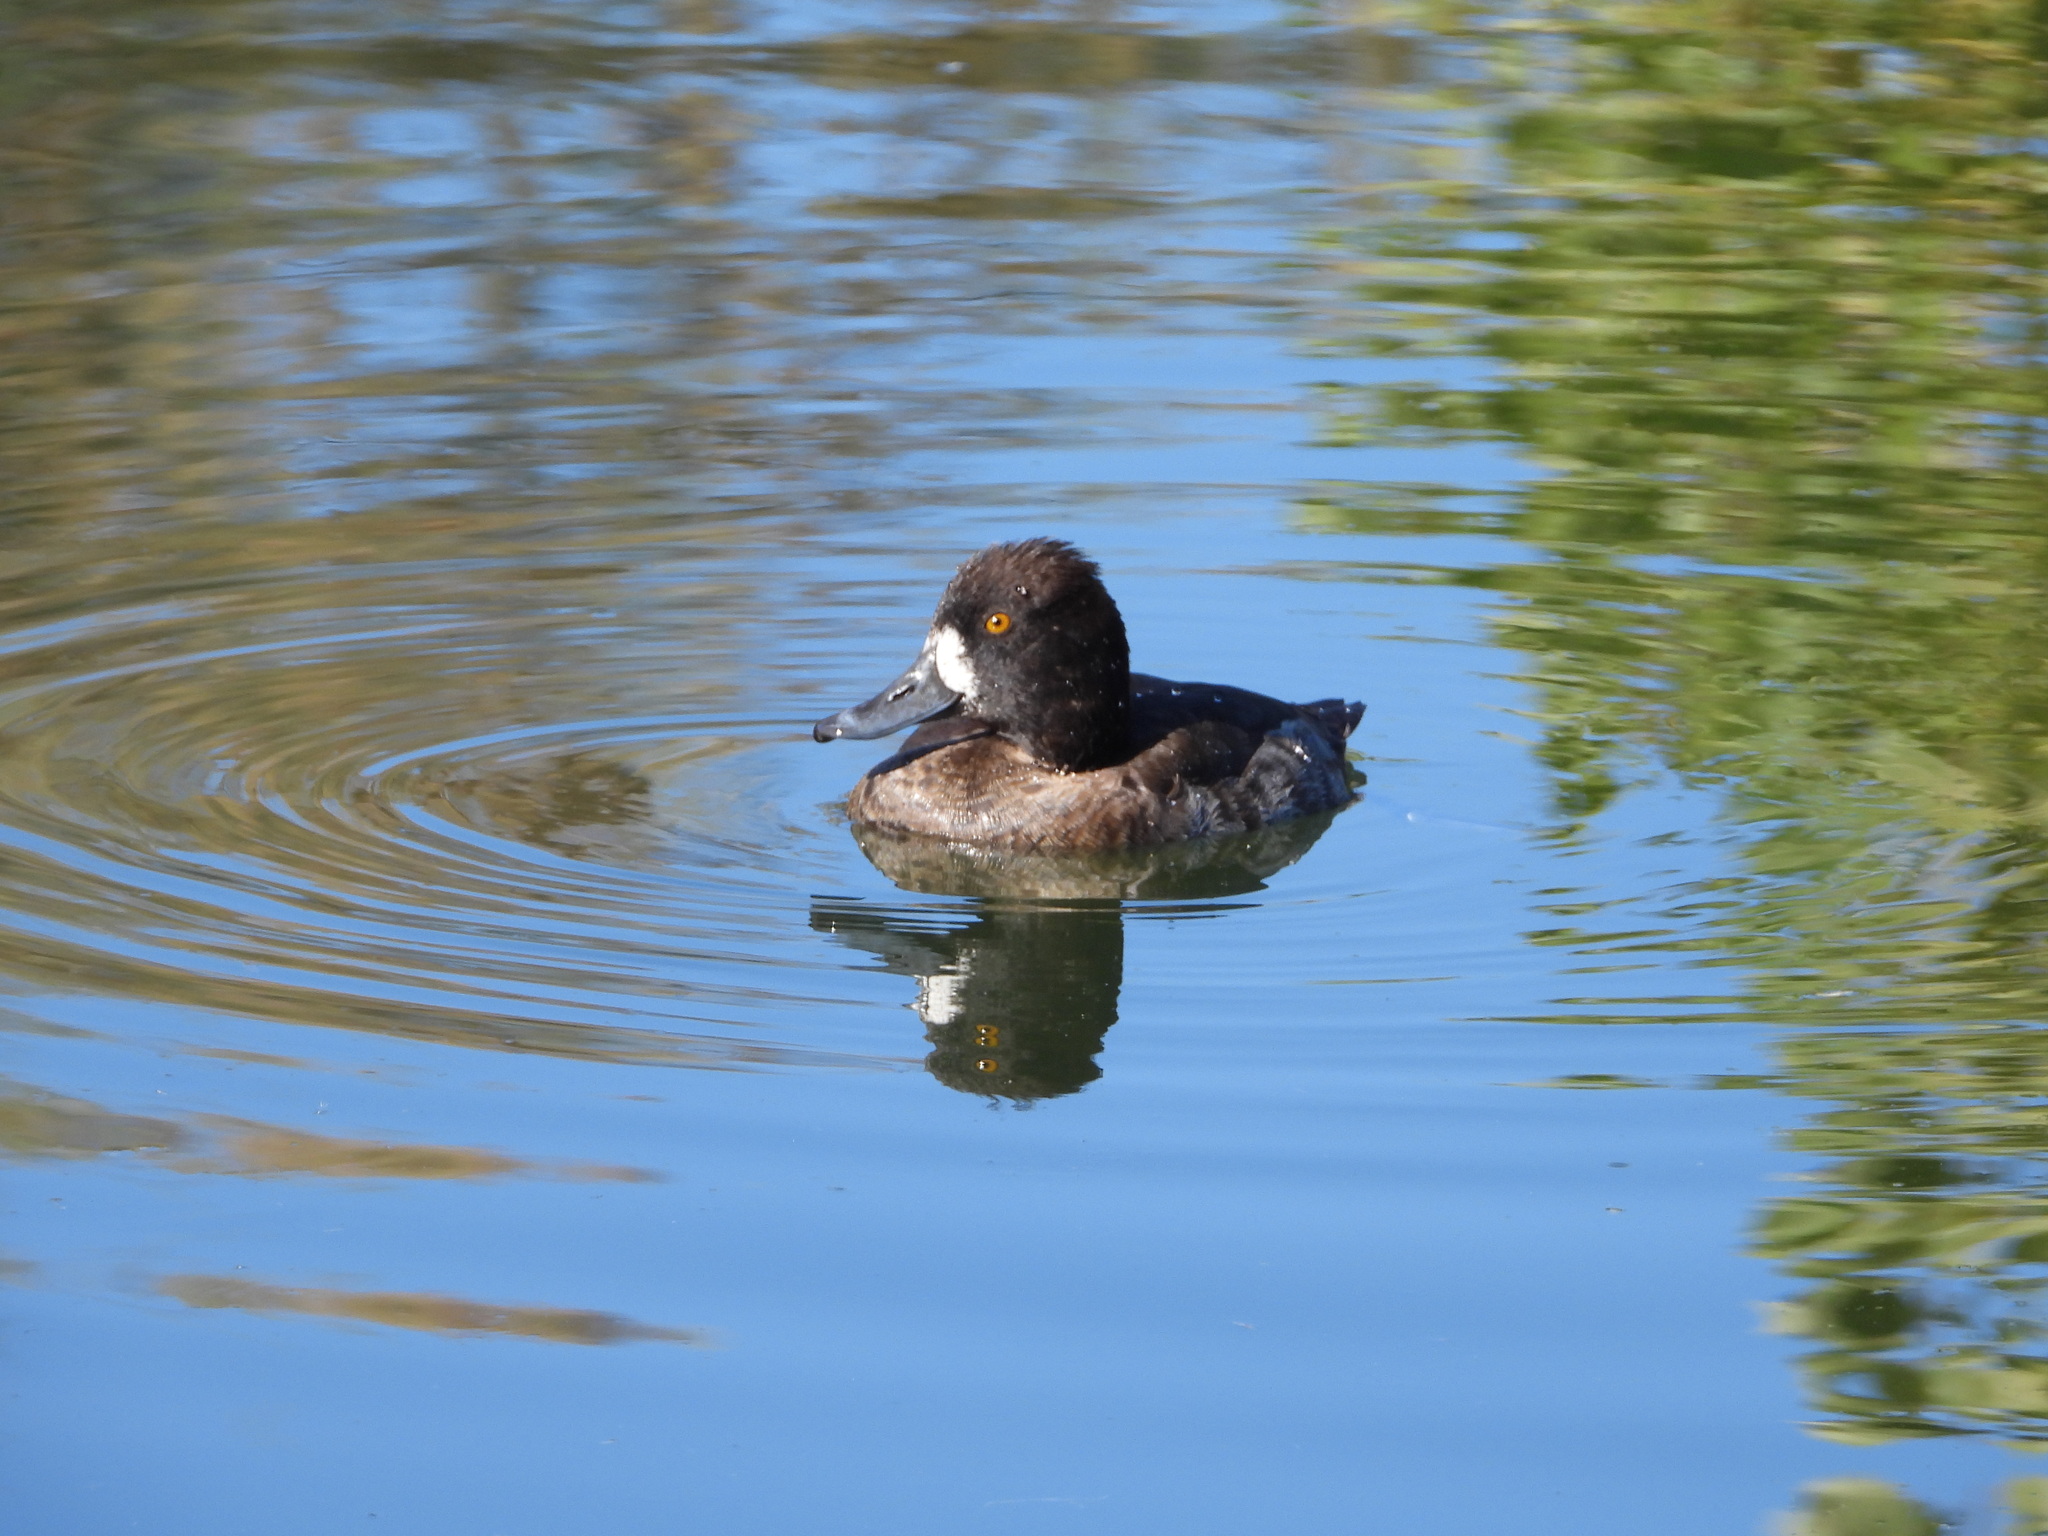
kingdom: Animalia
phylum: Chordata
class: Aves
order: Anseriformes
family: Anatidae
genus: Aythya
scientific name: Aythya affinis
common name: Lesser scaup
